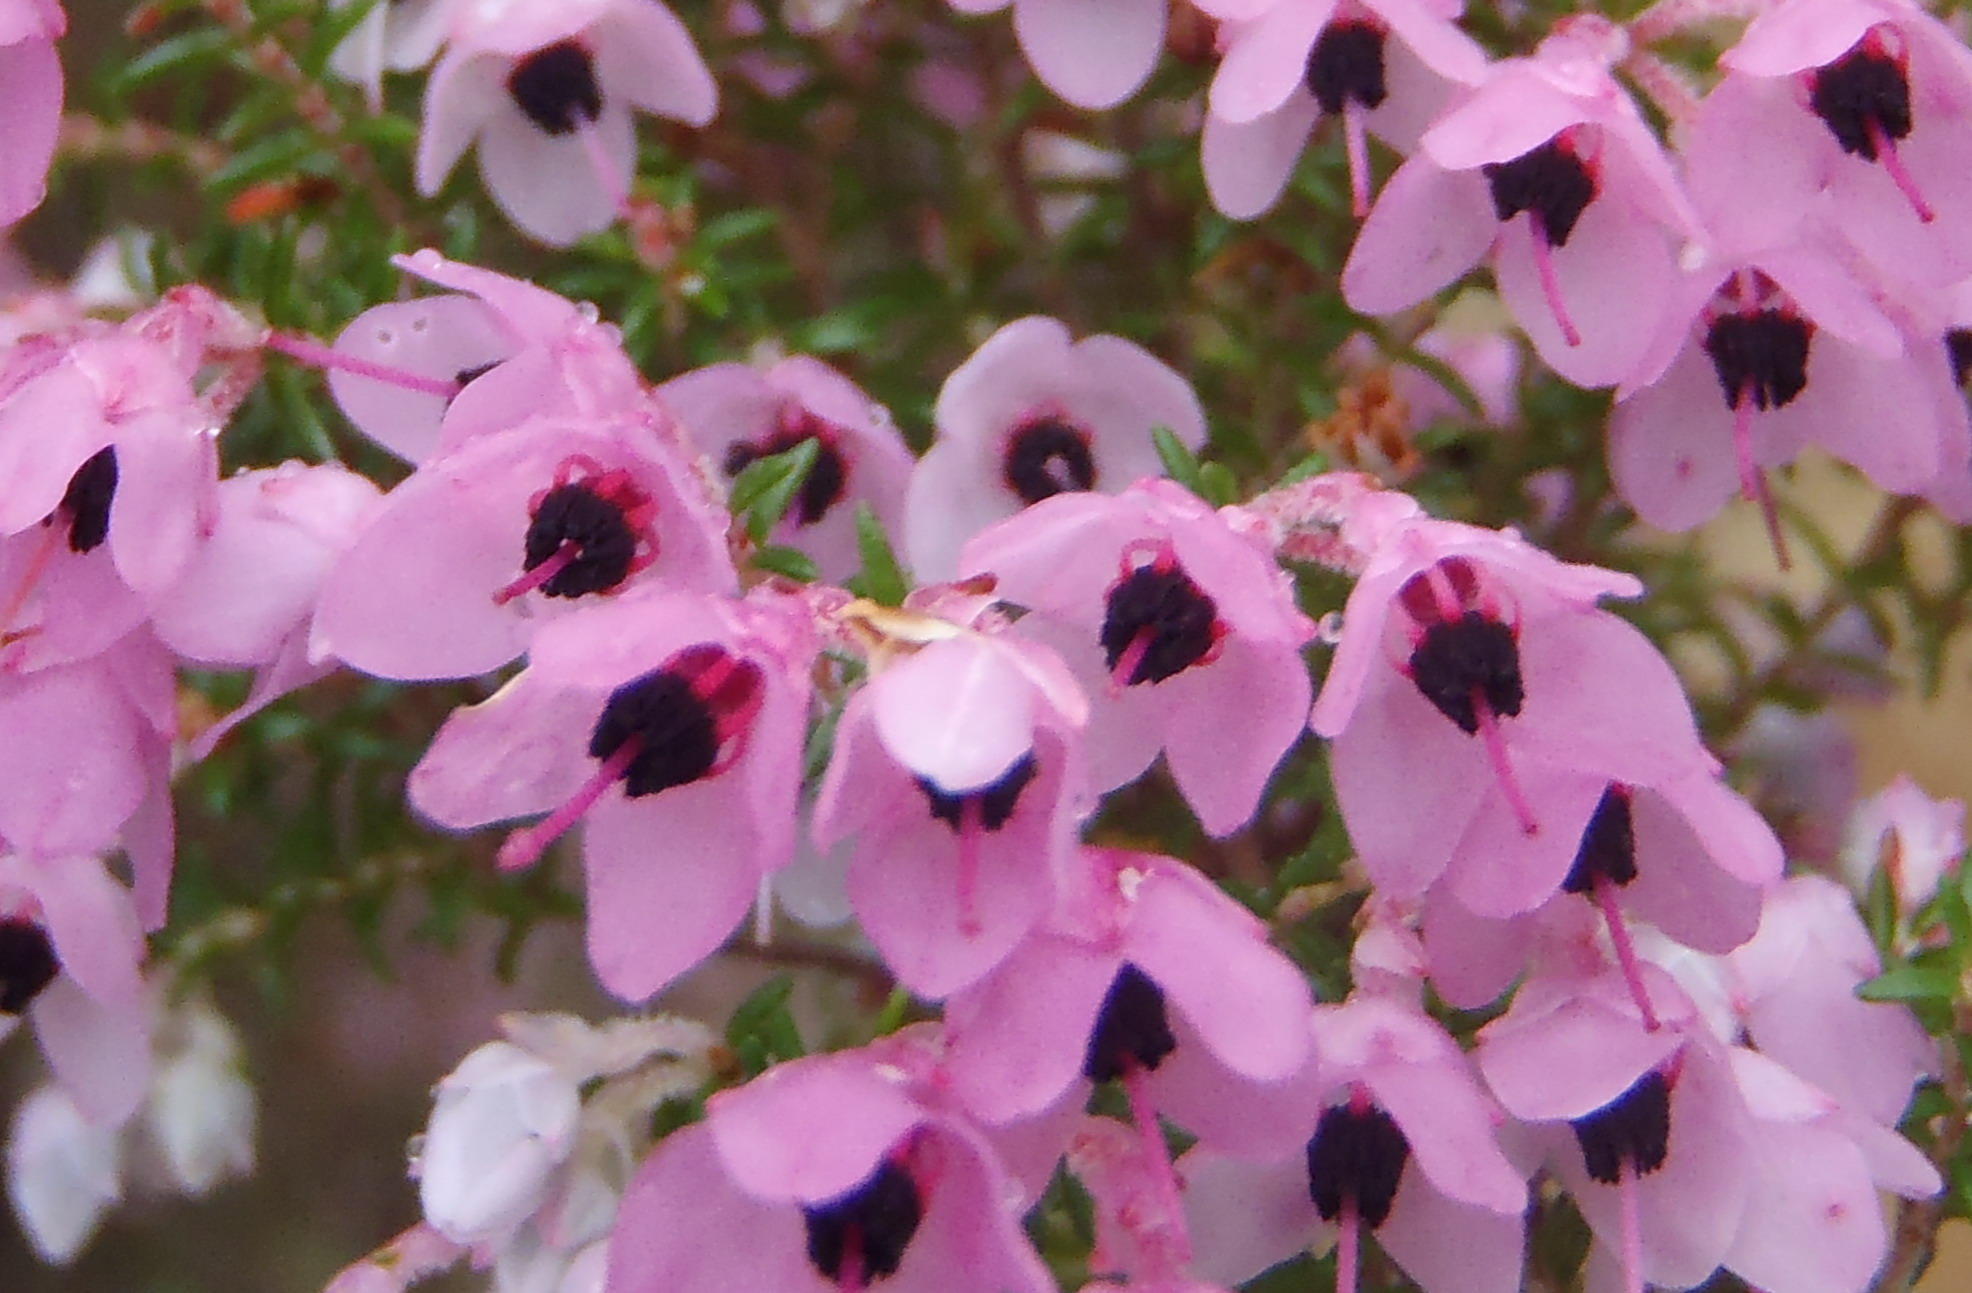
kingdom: Plantae
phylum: Tracheophyta
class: Magnoliopsida
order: Ericales
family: Ericaceae
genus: Erica
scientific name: Erica gillii
